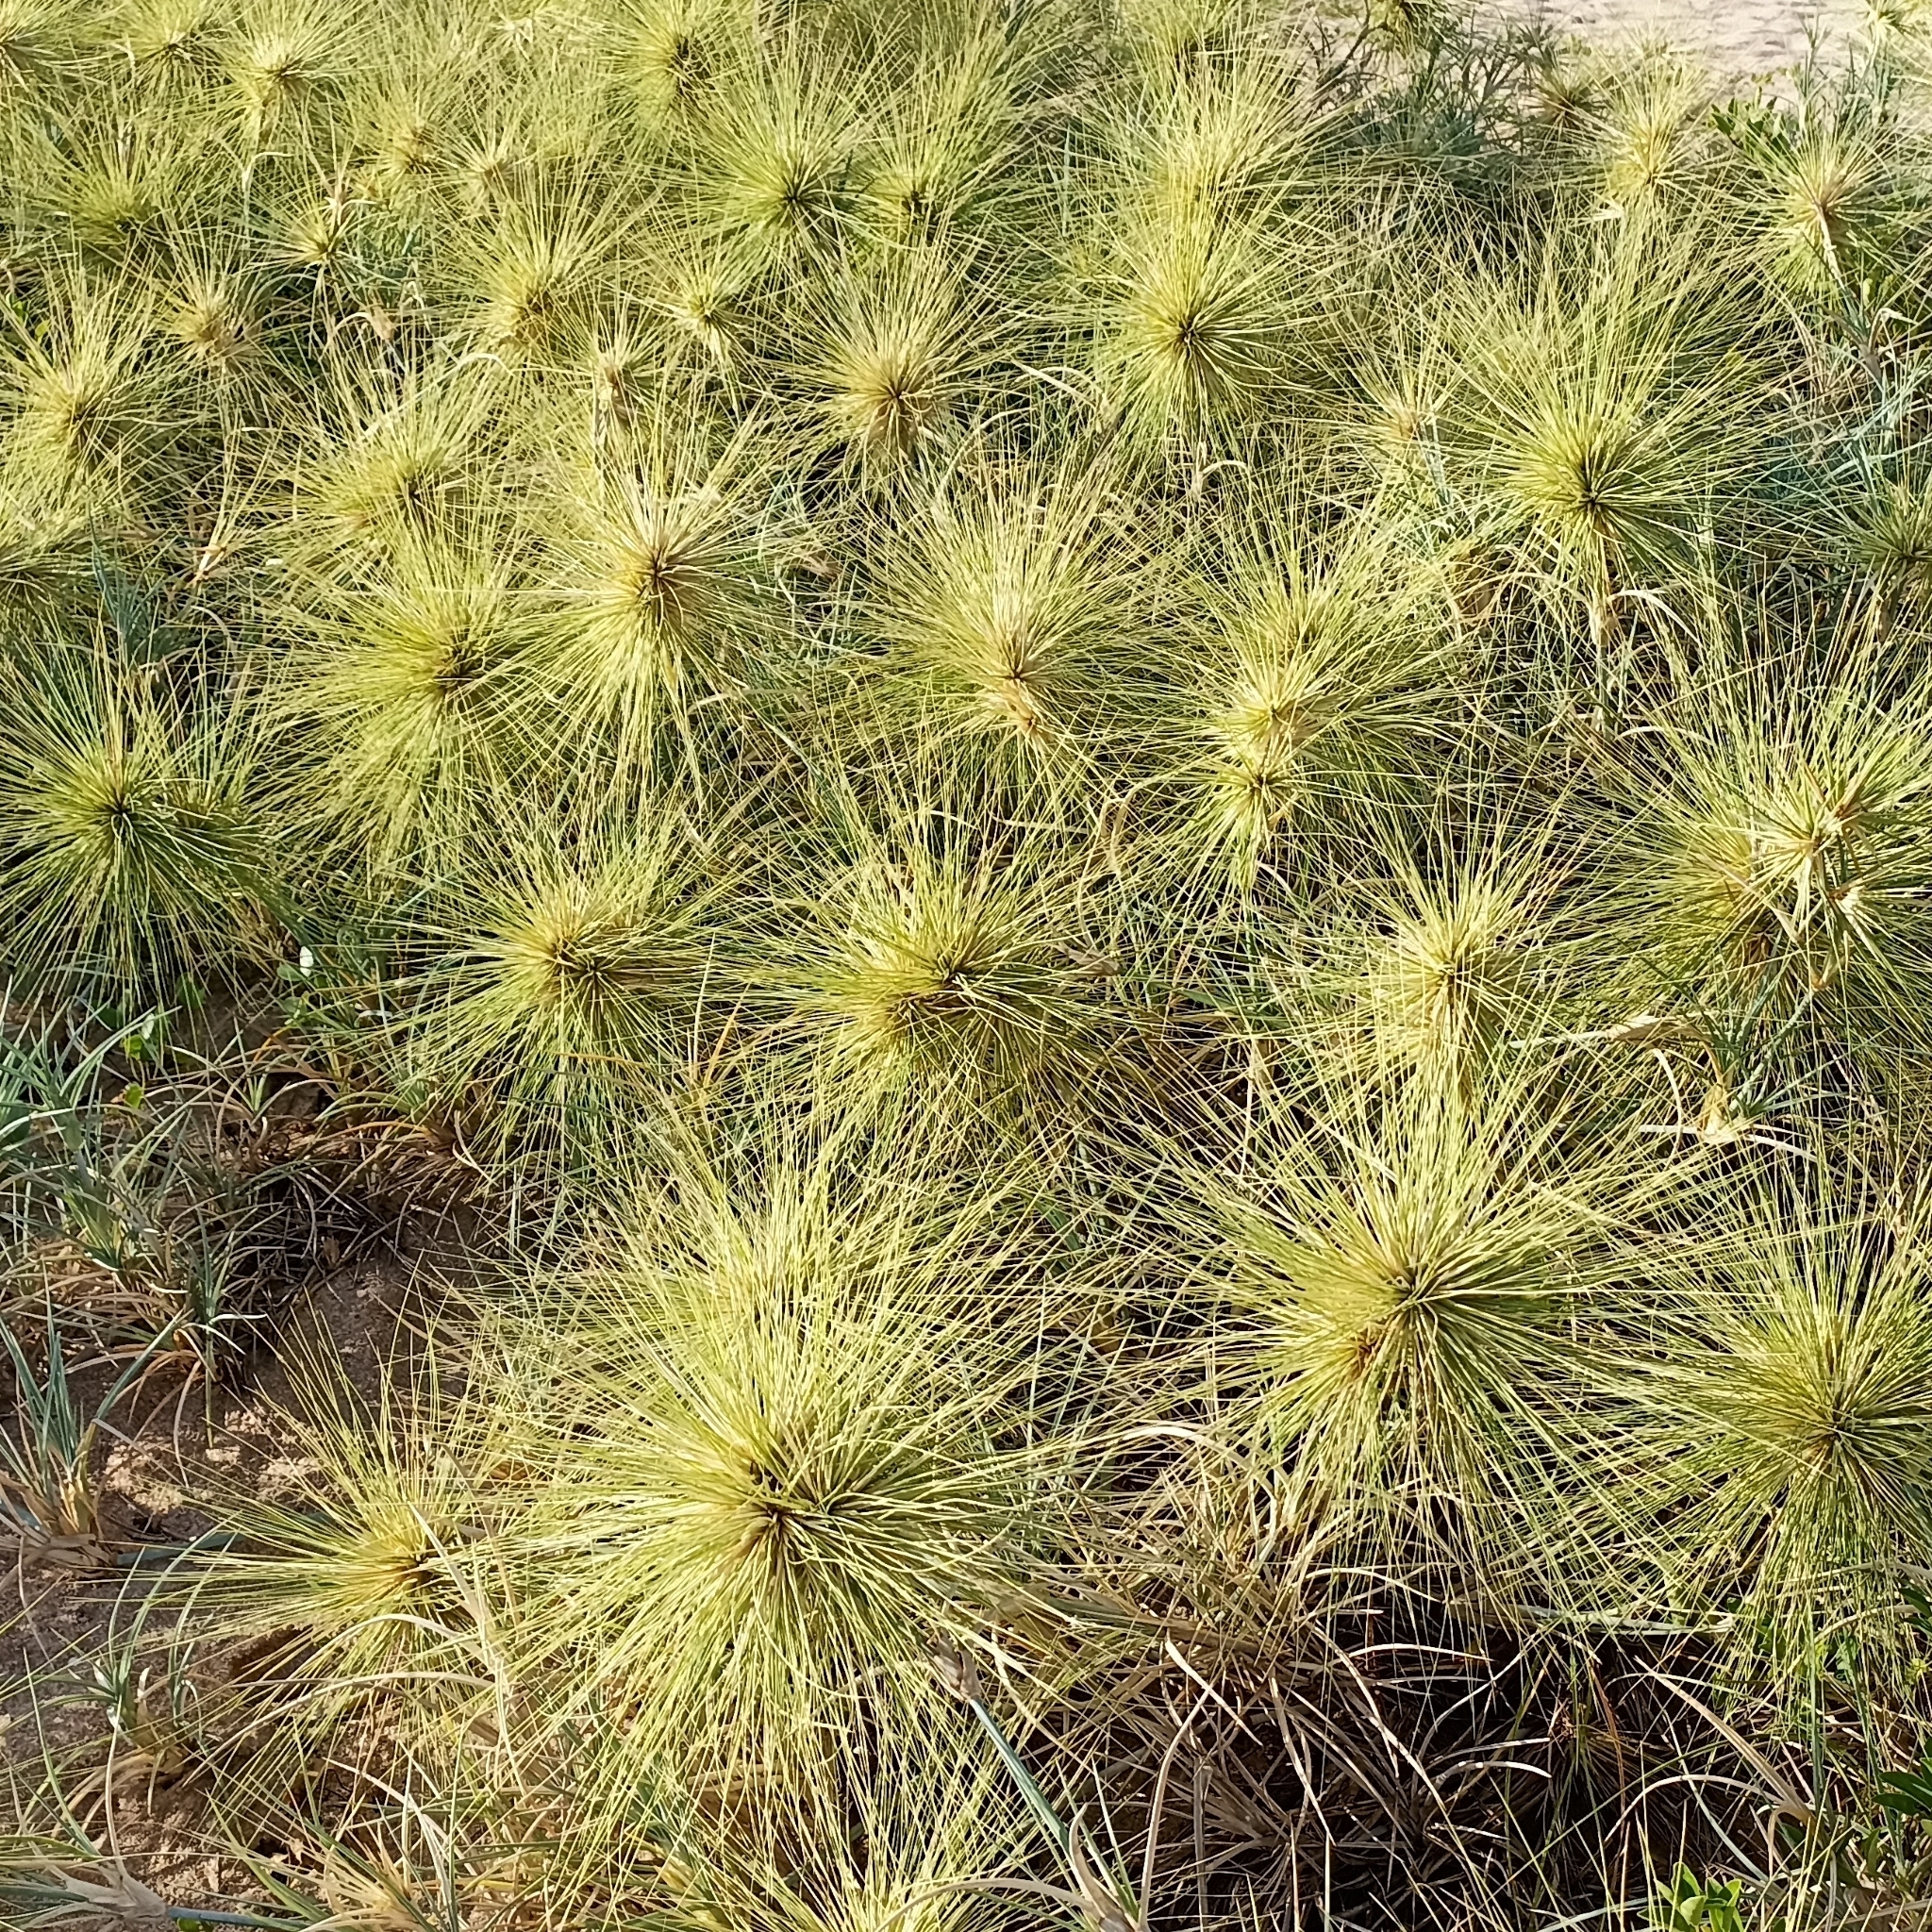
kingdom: Plantae
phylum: Tracheophyta
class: Liliopsida
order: Poales
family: Poaceae
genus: Spinifex
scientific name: Spinifex littoreus
